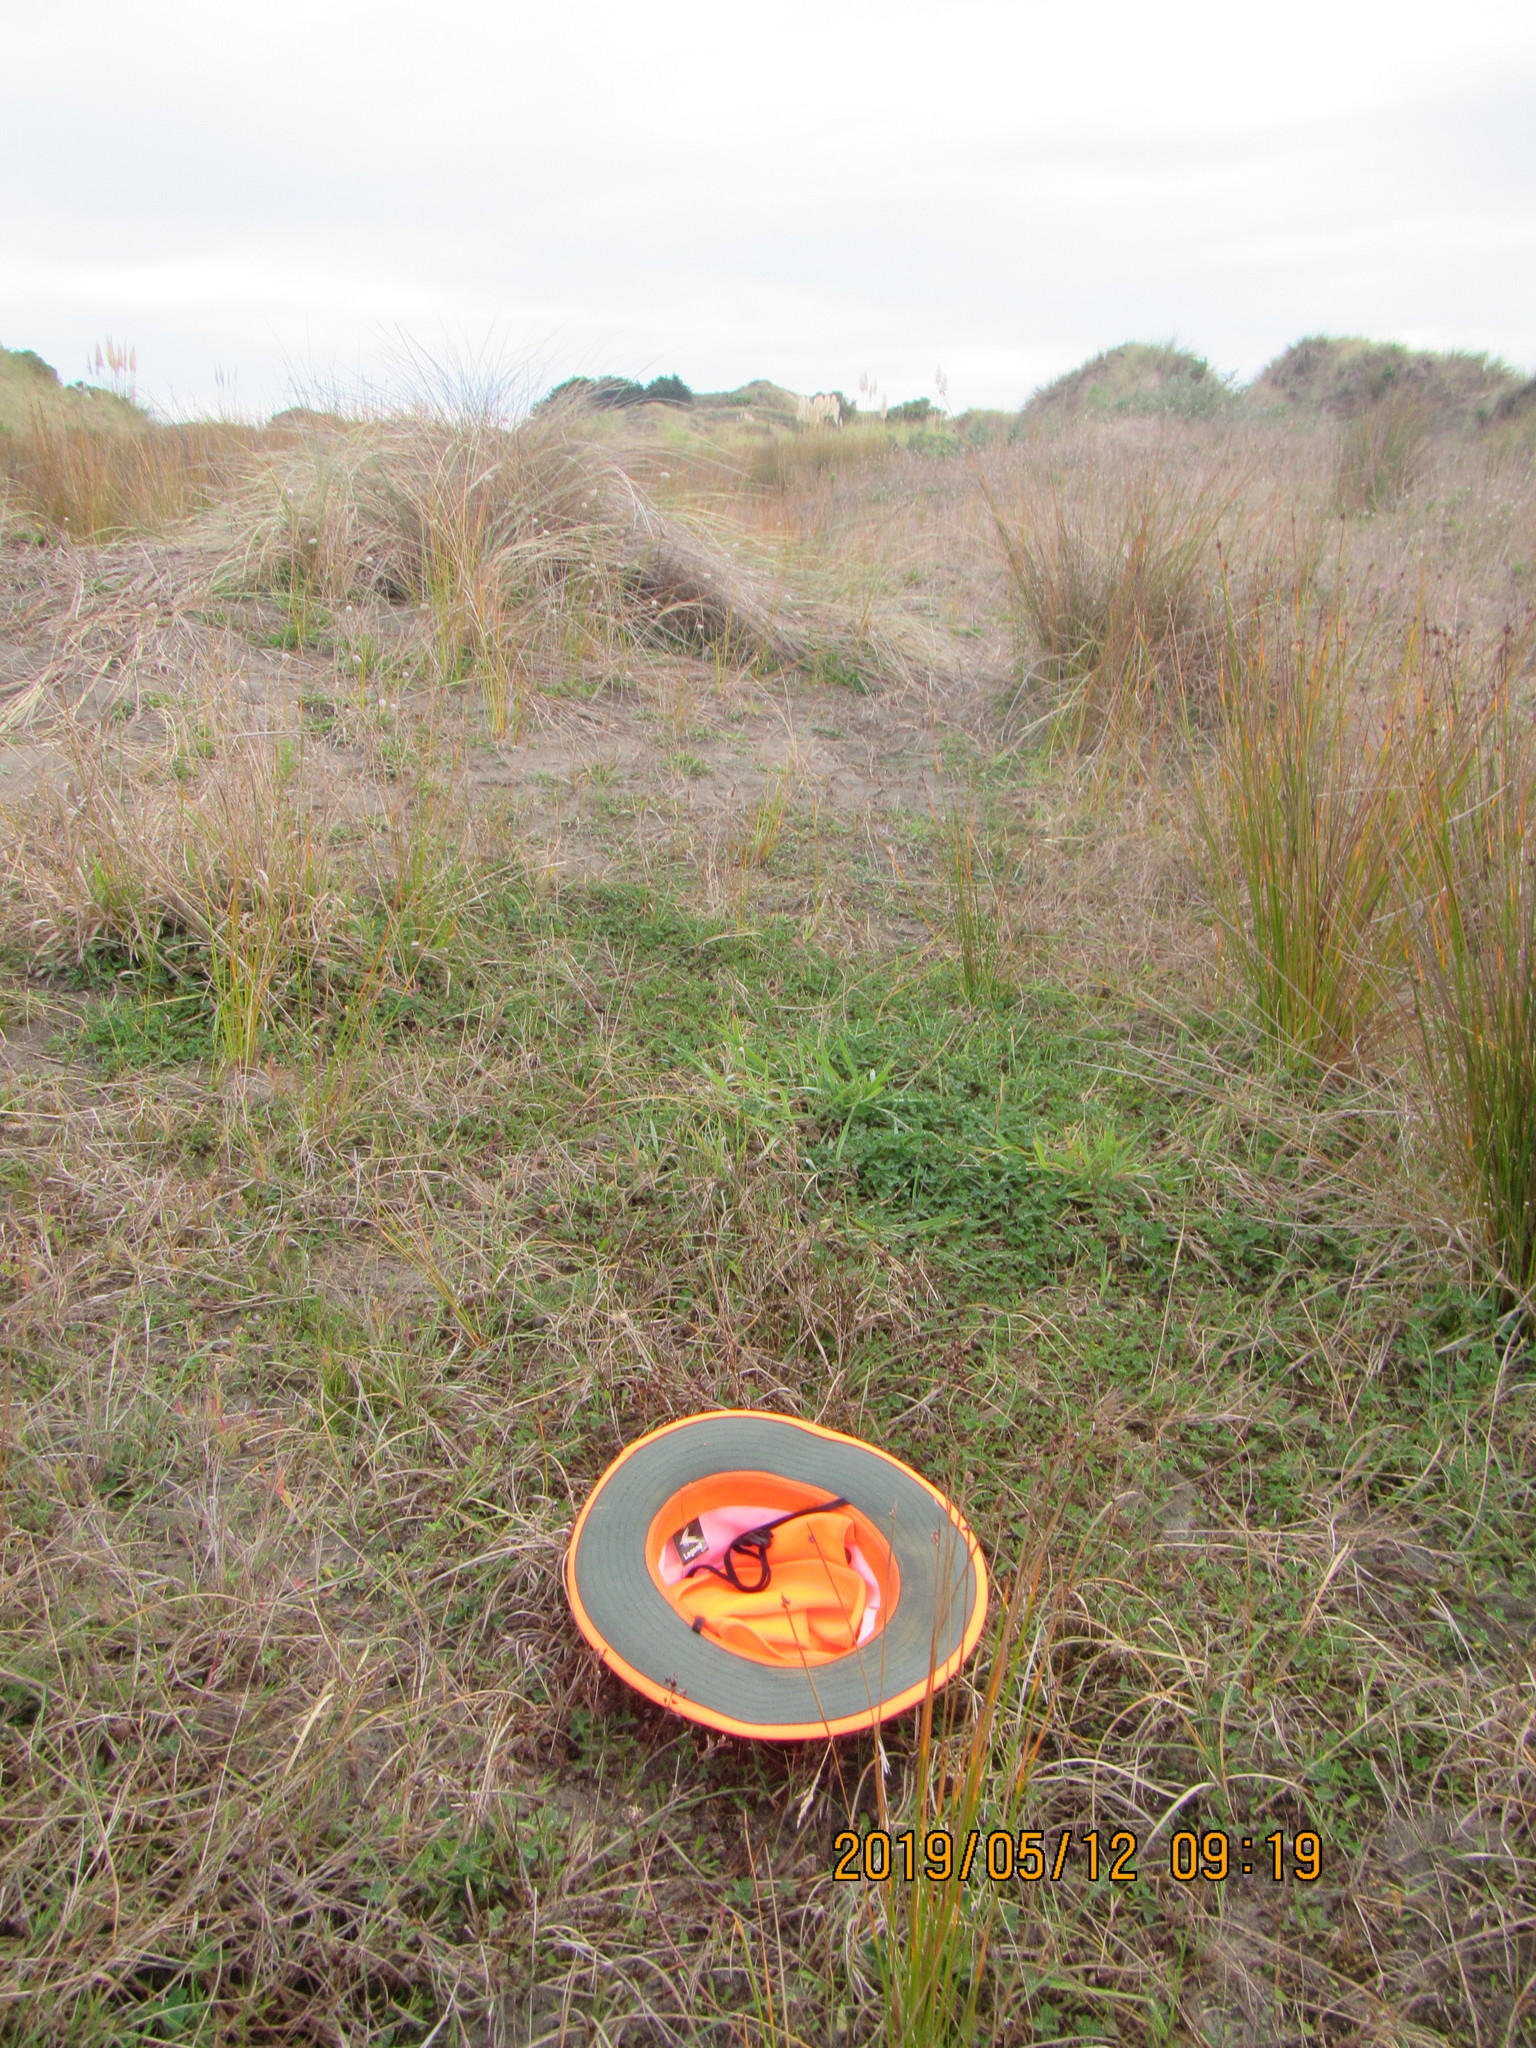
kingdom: Plantae
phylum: Tracheophyta
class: Liliopsida
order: Poales
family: Juncaceae
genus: Juncus
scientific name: Juncus articulatus
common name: Jointed rush
